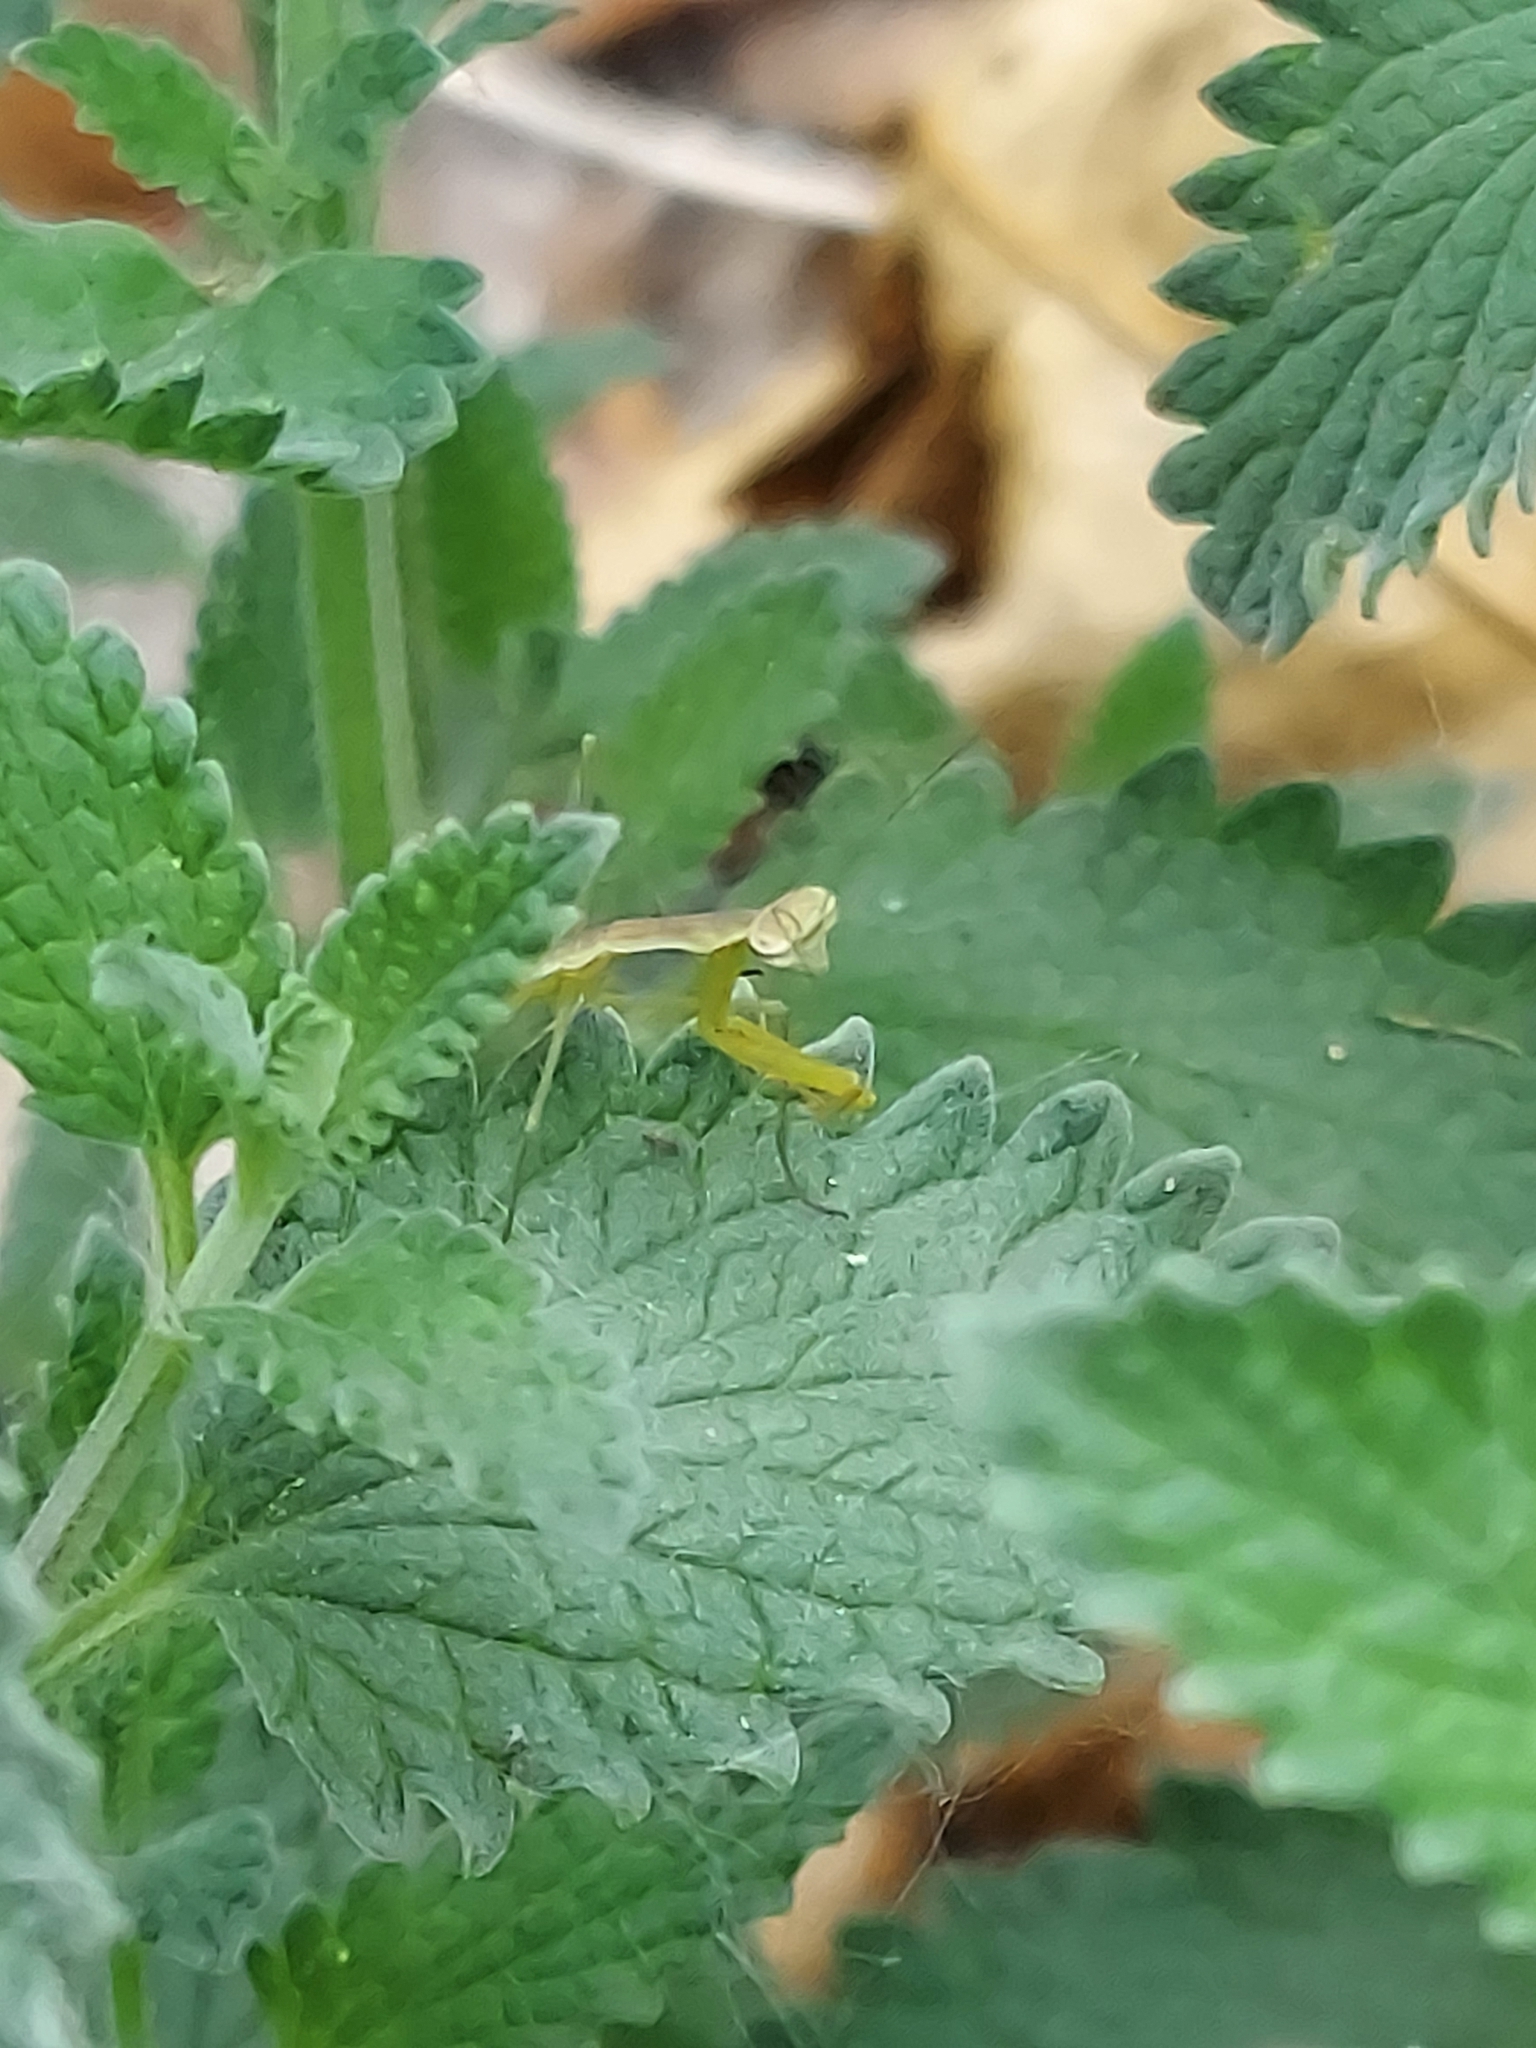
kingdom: Animalia
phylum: Arthropoda
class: Insecta
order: Mantodea
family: Mantidae
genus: Tenodera
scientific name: Tenodera sinensis
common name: Chinese mantis
